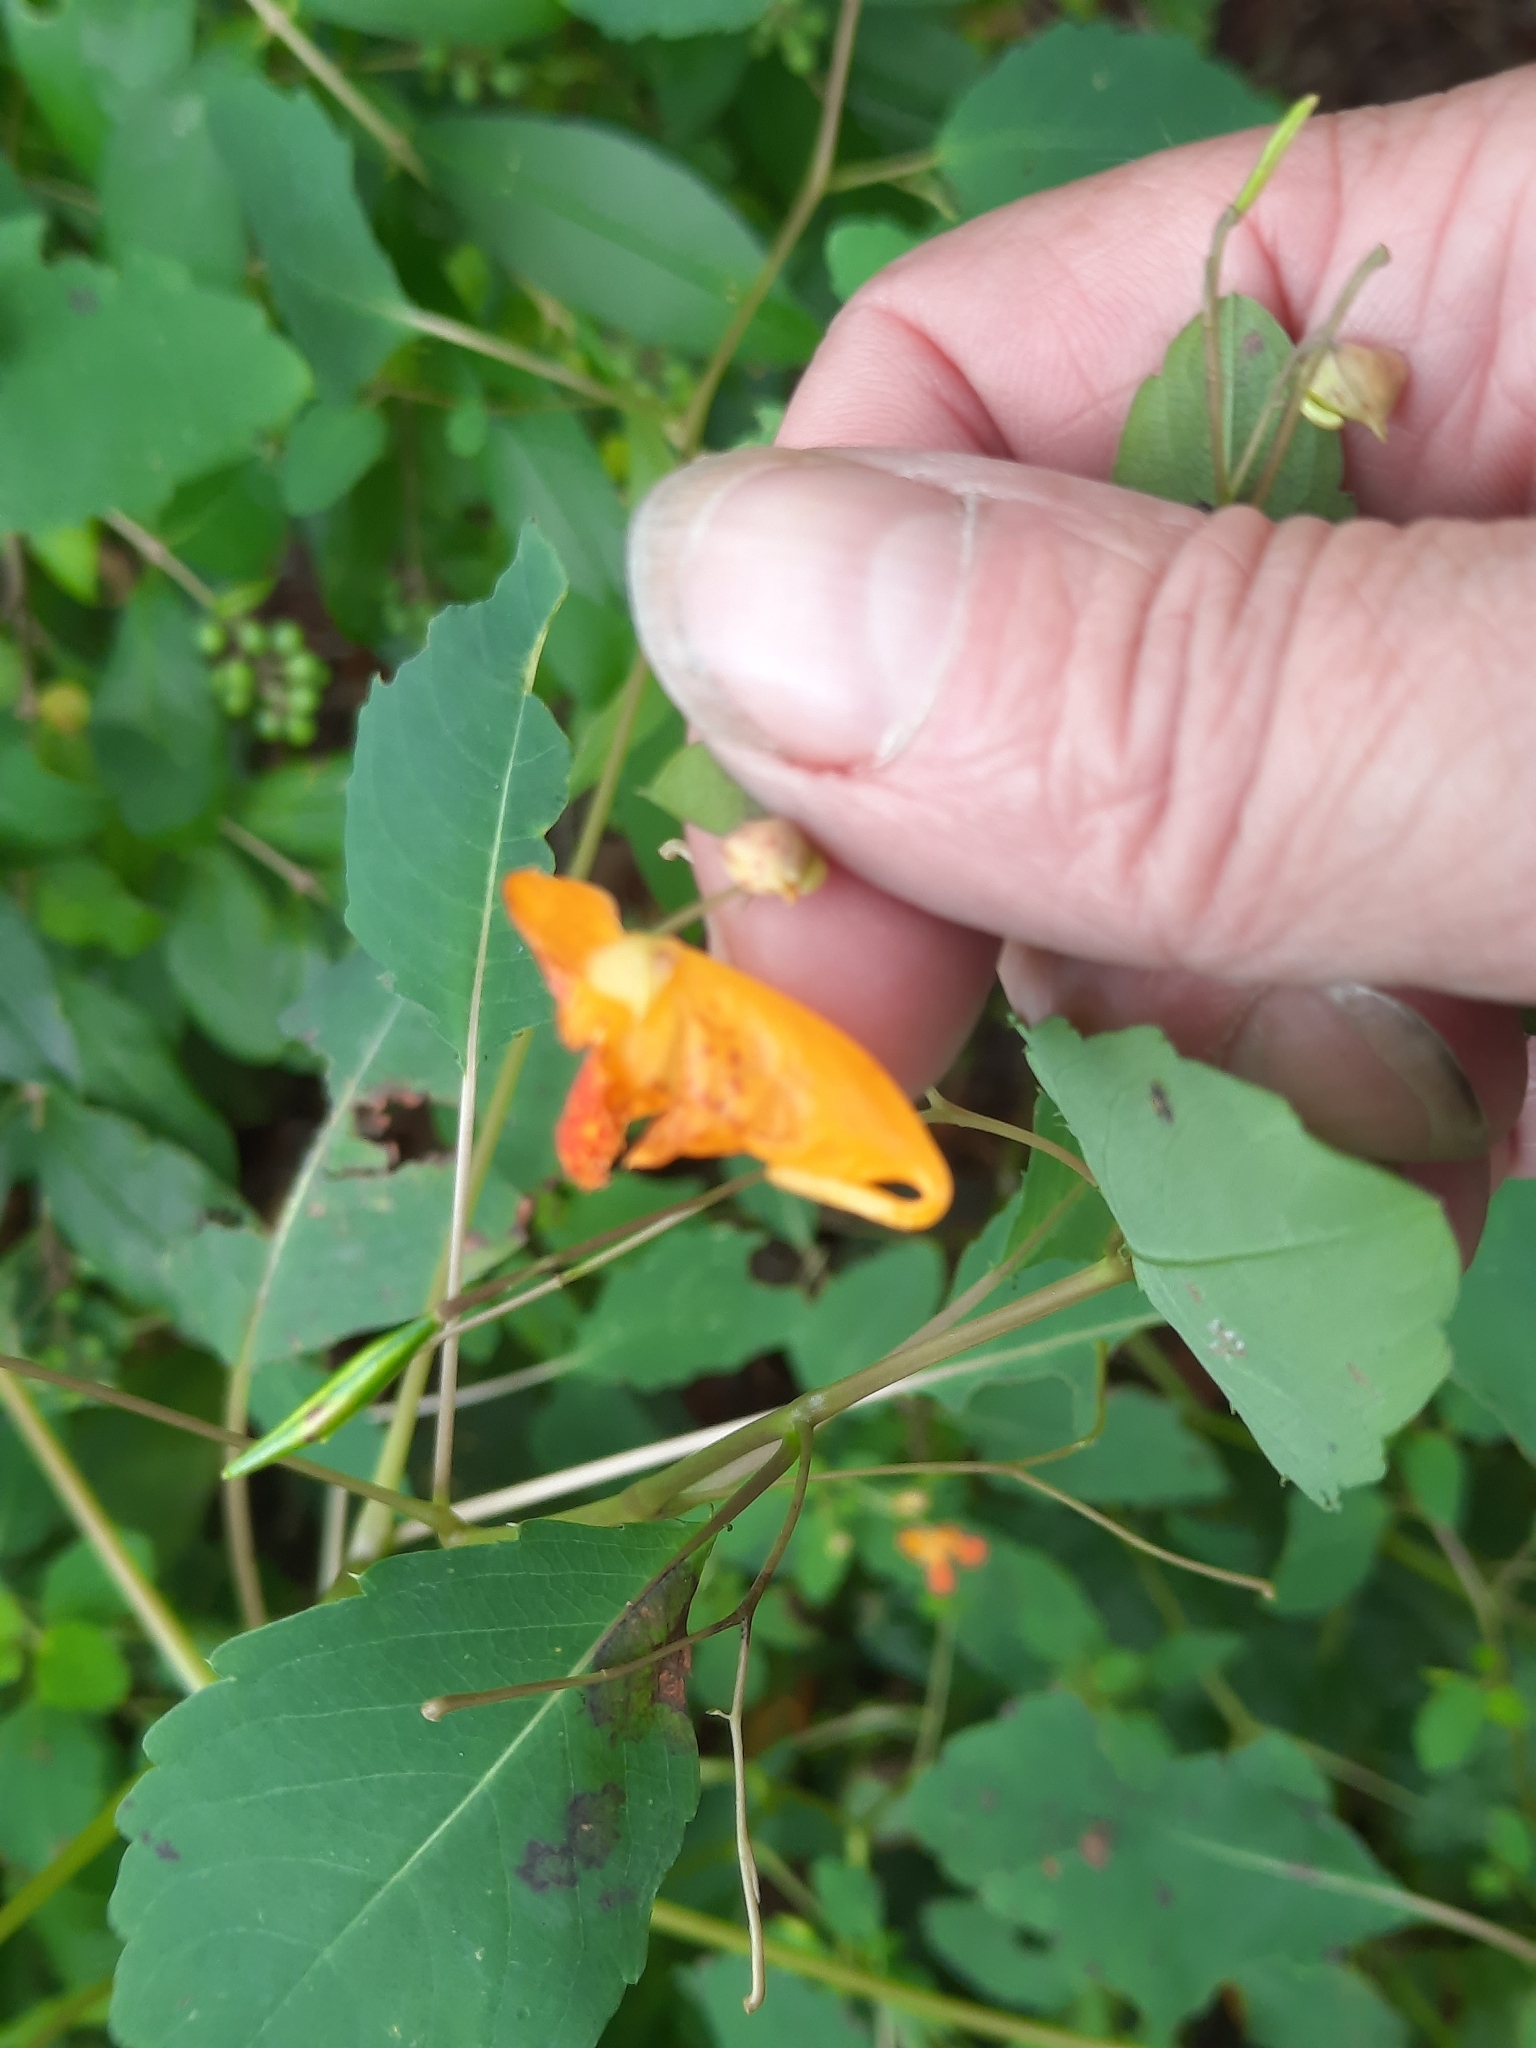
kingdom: Plantae
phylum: Tracheophyta
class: Magnoliopsida
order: Ericales
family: Balsaminaceae
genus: Impatiens
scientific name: Impatiens capensis
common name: Orange balsam
